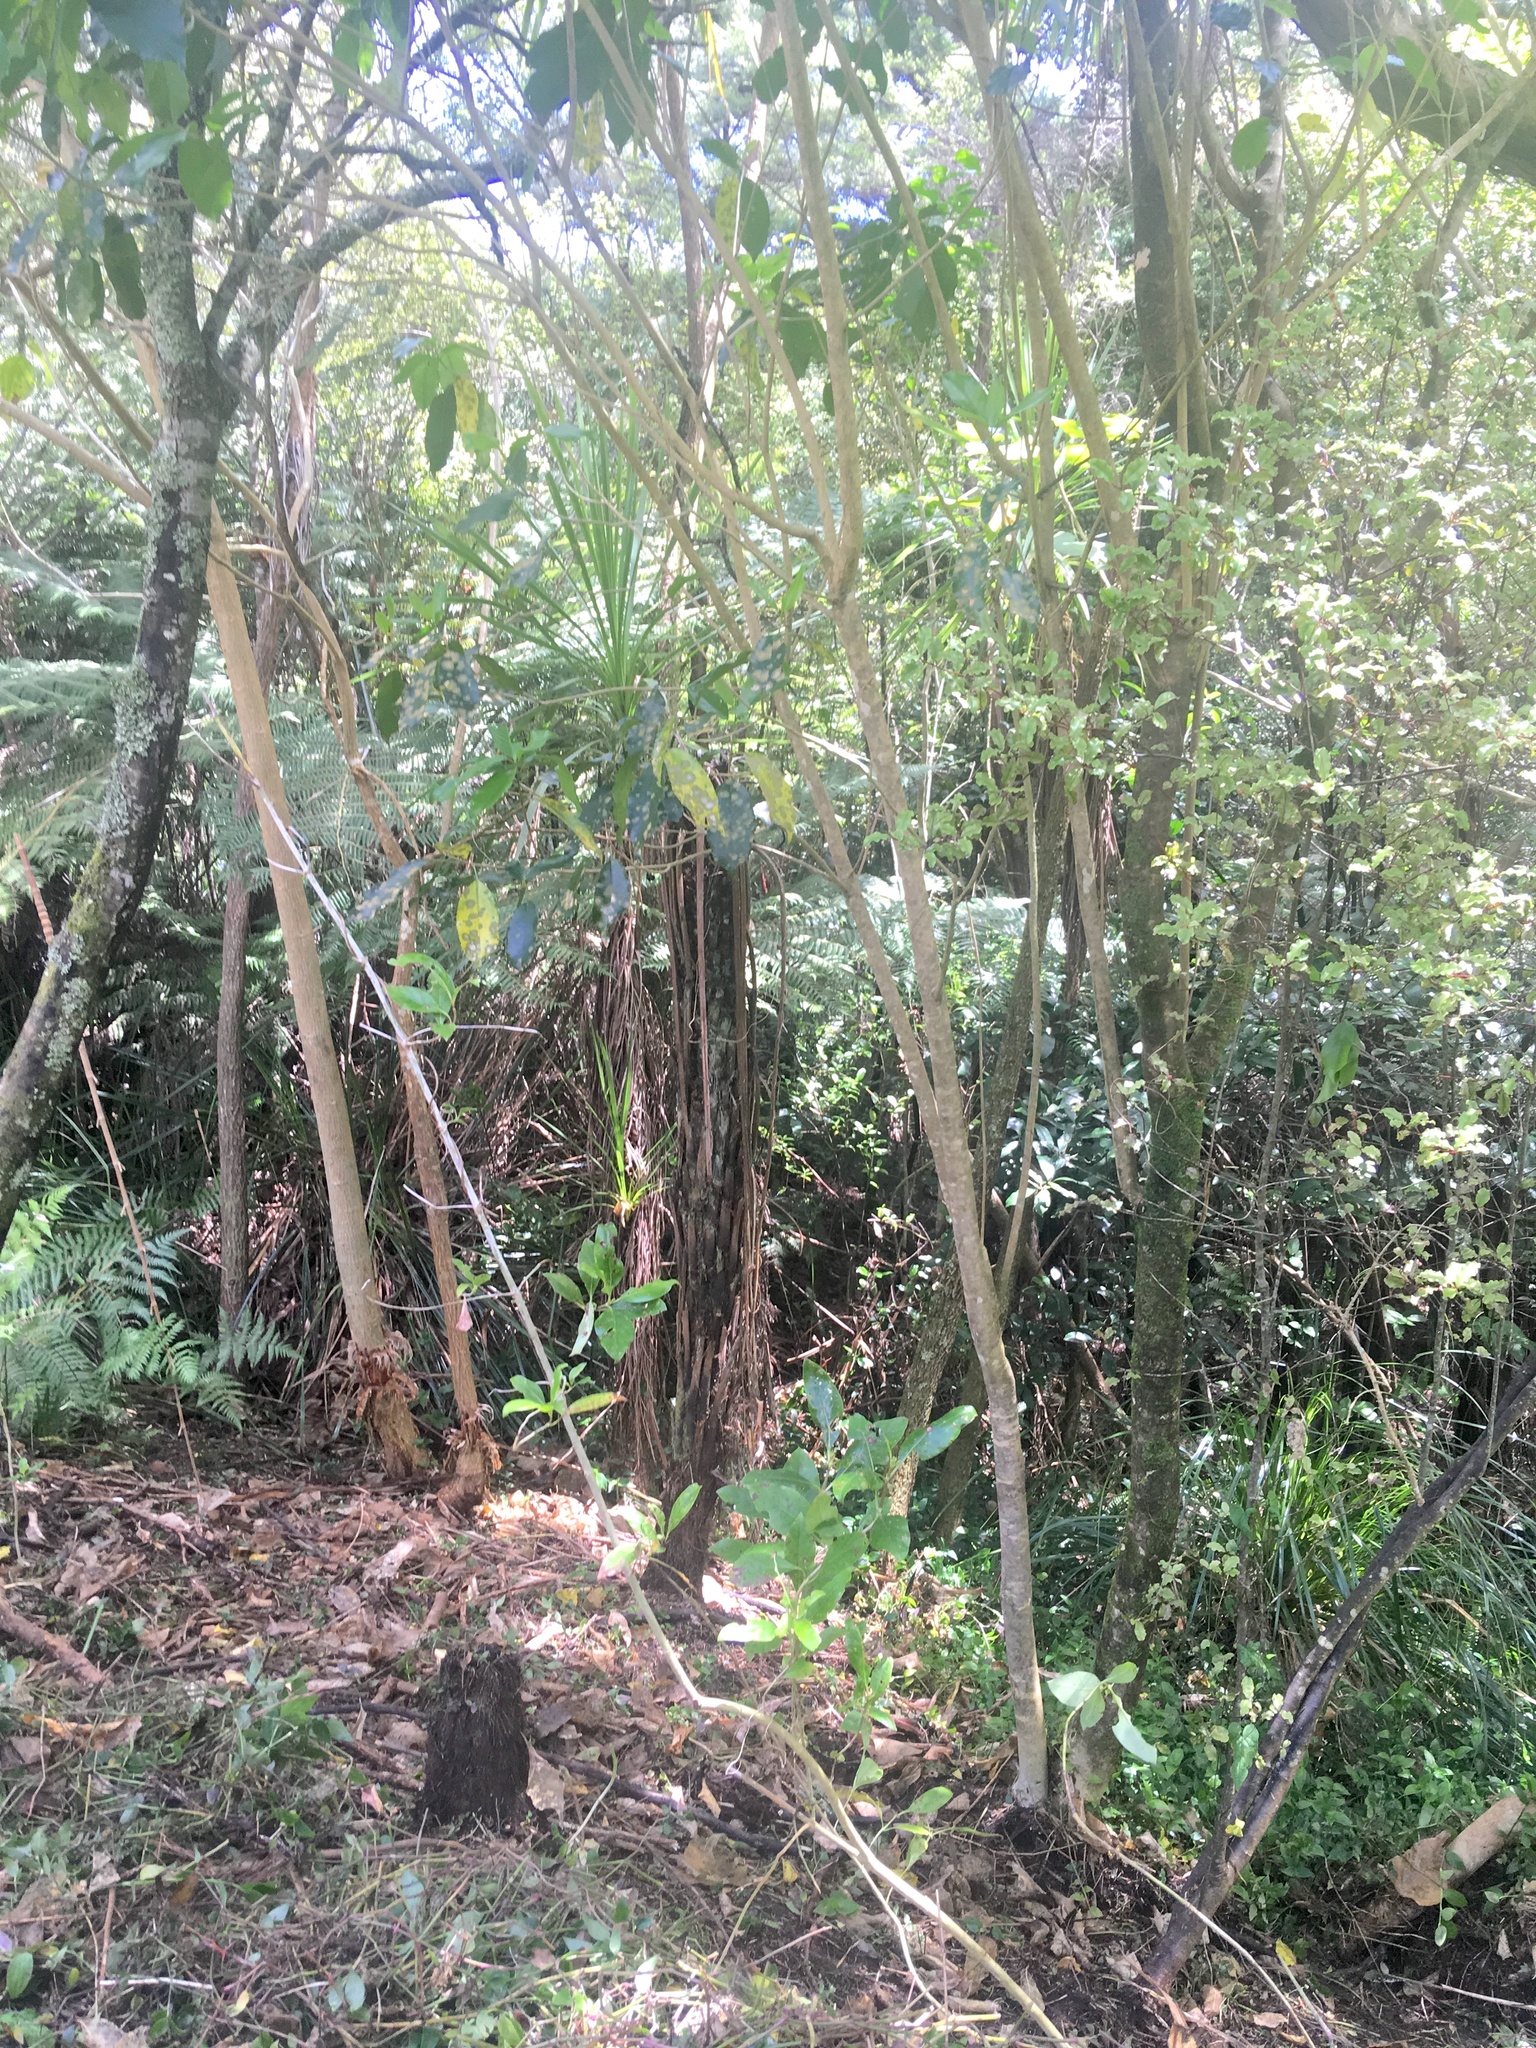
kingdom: Plantae
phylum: Tracheophyta
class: Magnoliopsida
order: Malpighiales
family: Violaceae
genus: Melicytus
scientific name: Melicytus ramiflorus
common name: Mahoe
